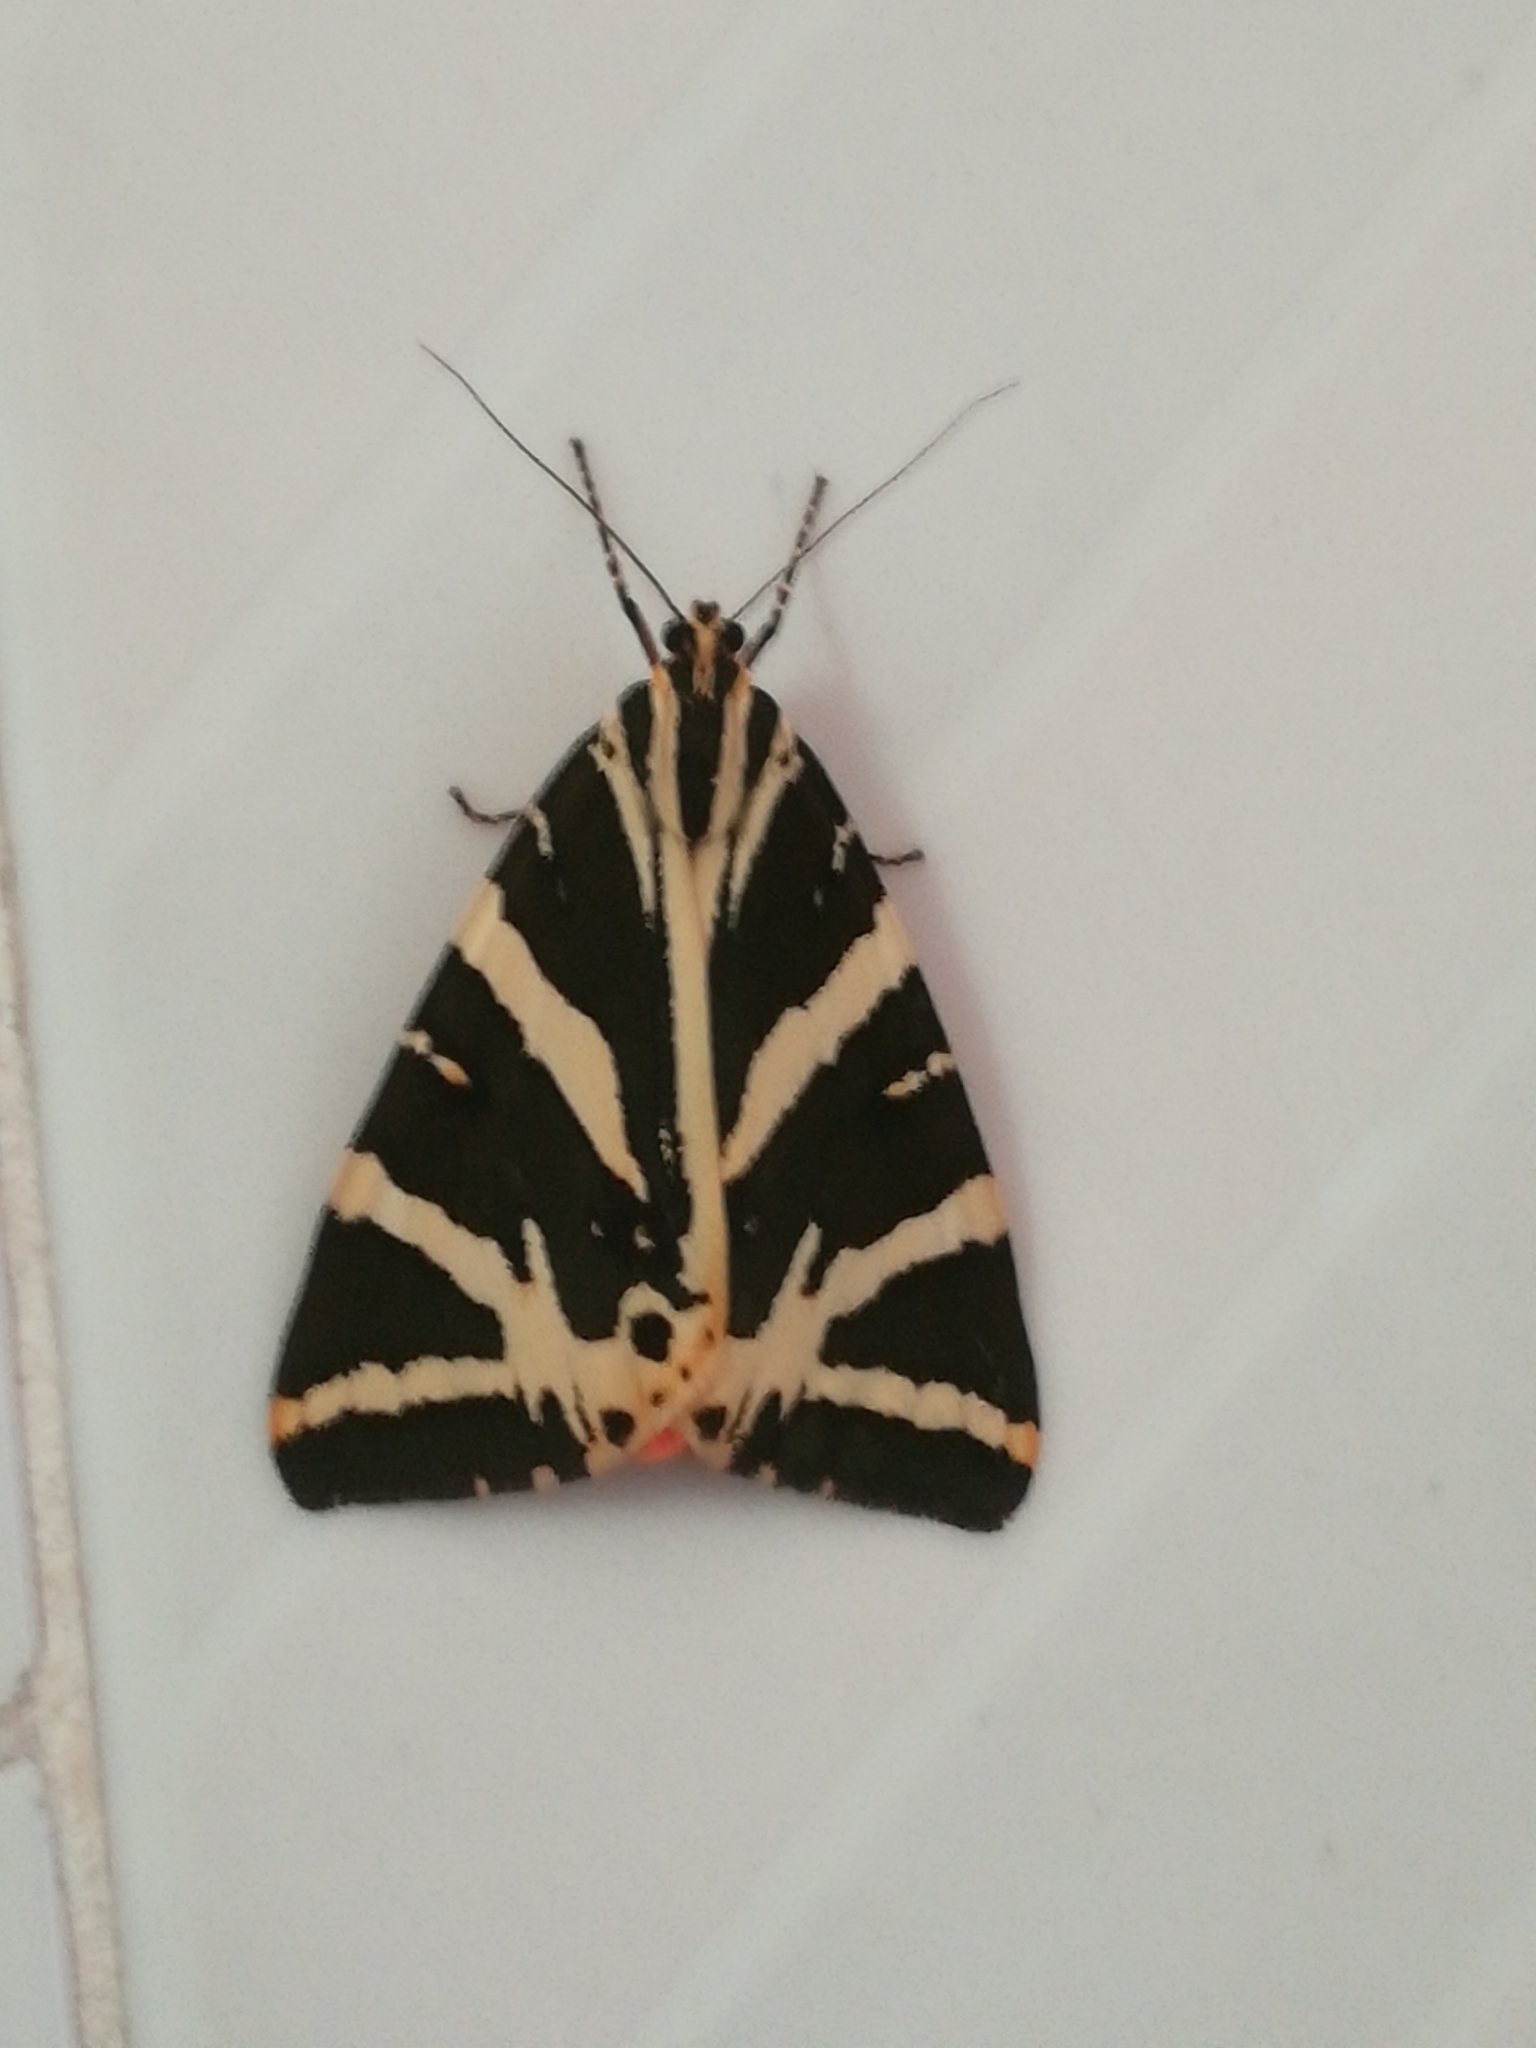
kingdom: Animalia
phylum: Arthropoda
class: Insecta
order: Lepidoptera
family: Erebidae
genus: Euplagia
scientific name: Euplagia quadripunctaria
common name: Jersey tiger
